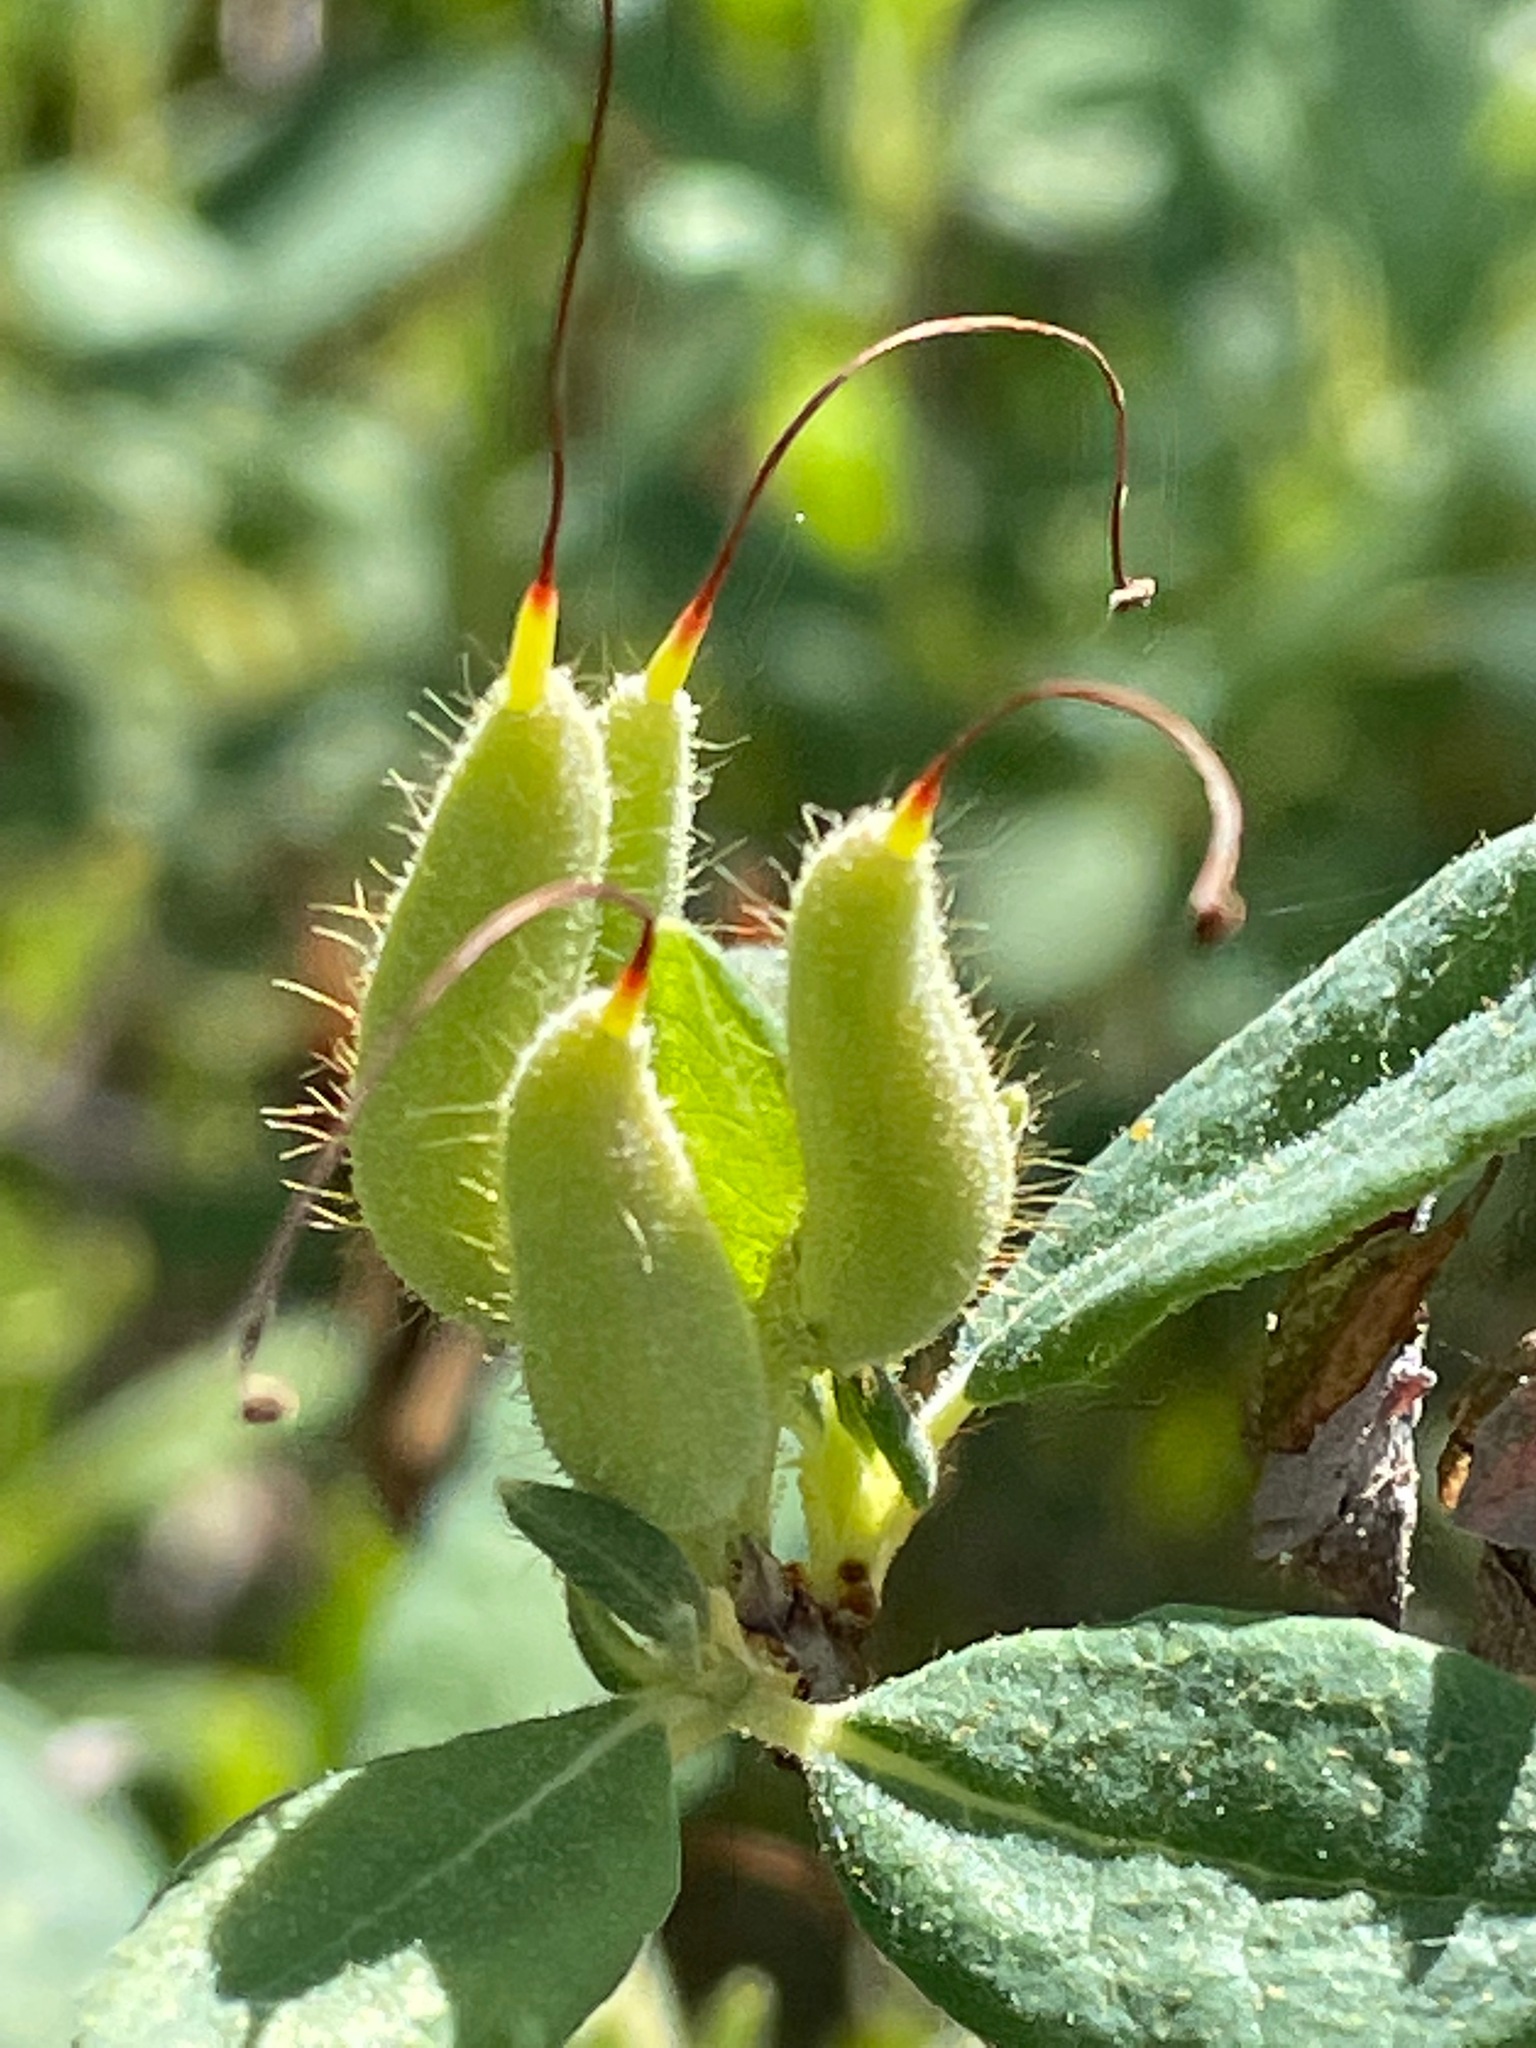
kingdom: Plantae
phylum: Tracheophyta
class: Magnoliopsida
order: Ericales
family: Ericaceae
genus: Rhododendron
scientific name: Rhododendron canadense
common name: Rhodora
